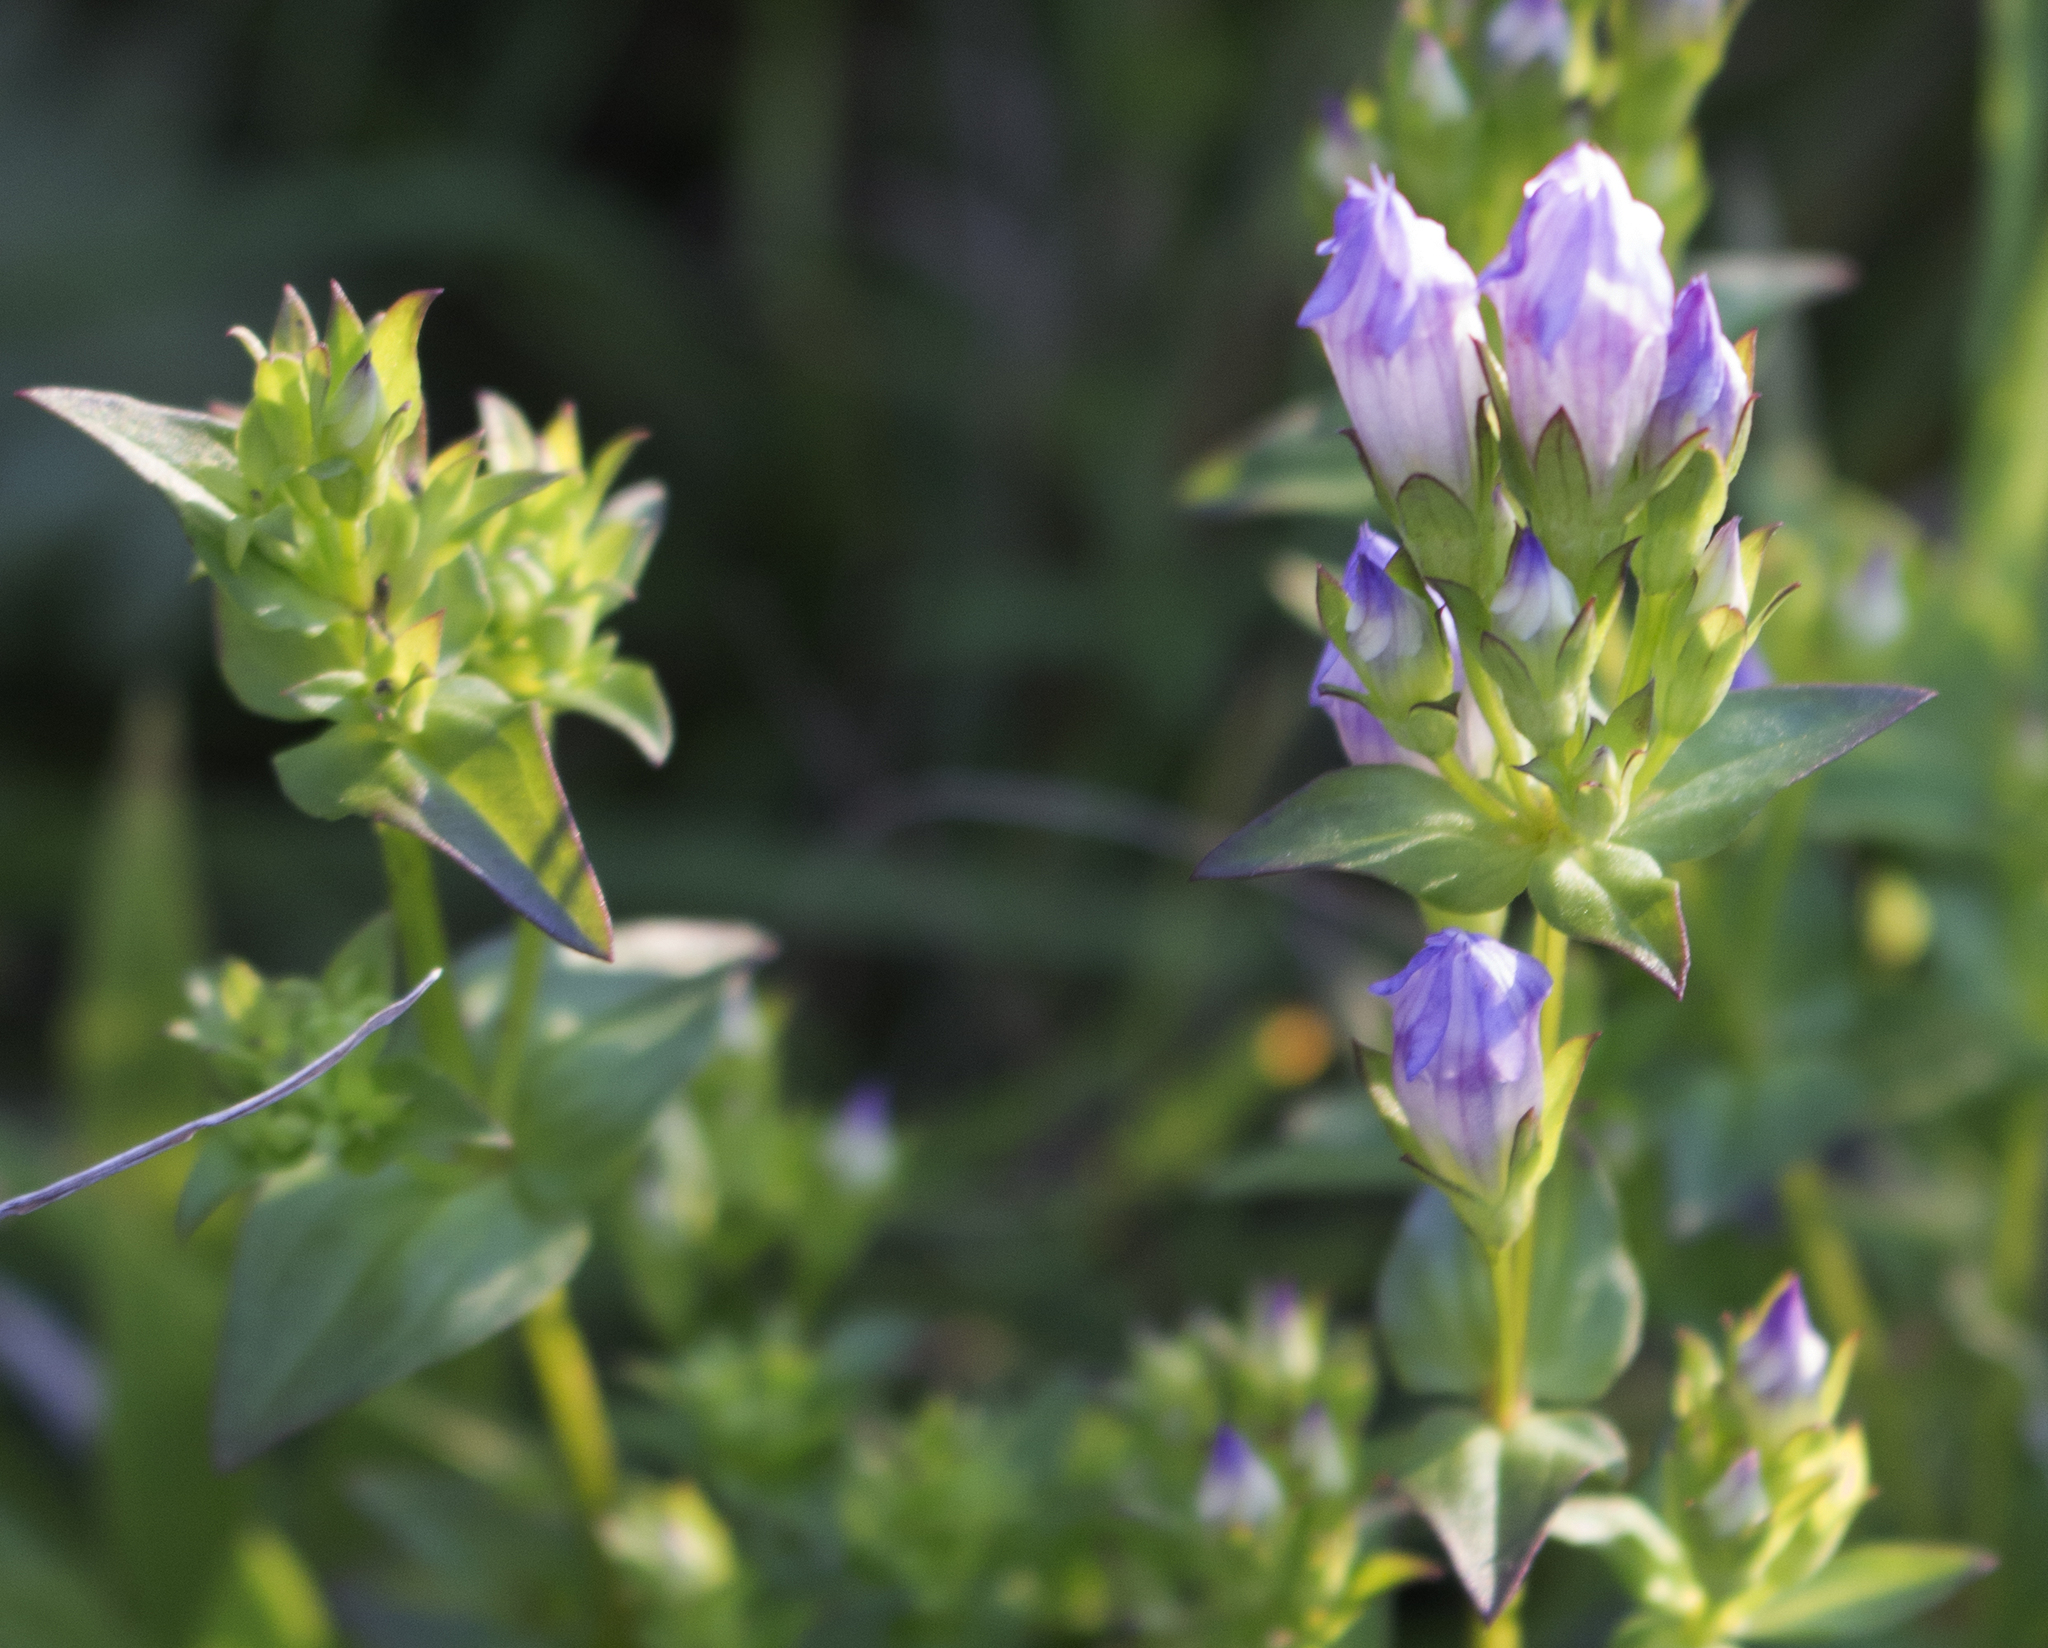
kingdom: Plantae
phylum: Tracheophyta
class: Magnoliopsida
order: Gentianales
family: Gentianaceae
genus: Gentianella
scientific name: Gentianella quinquefolia
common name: Agueweed
